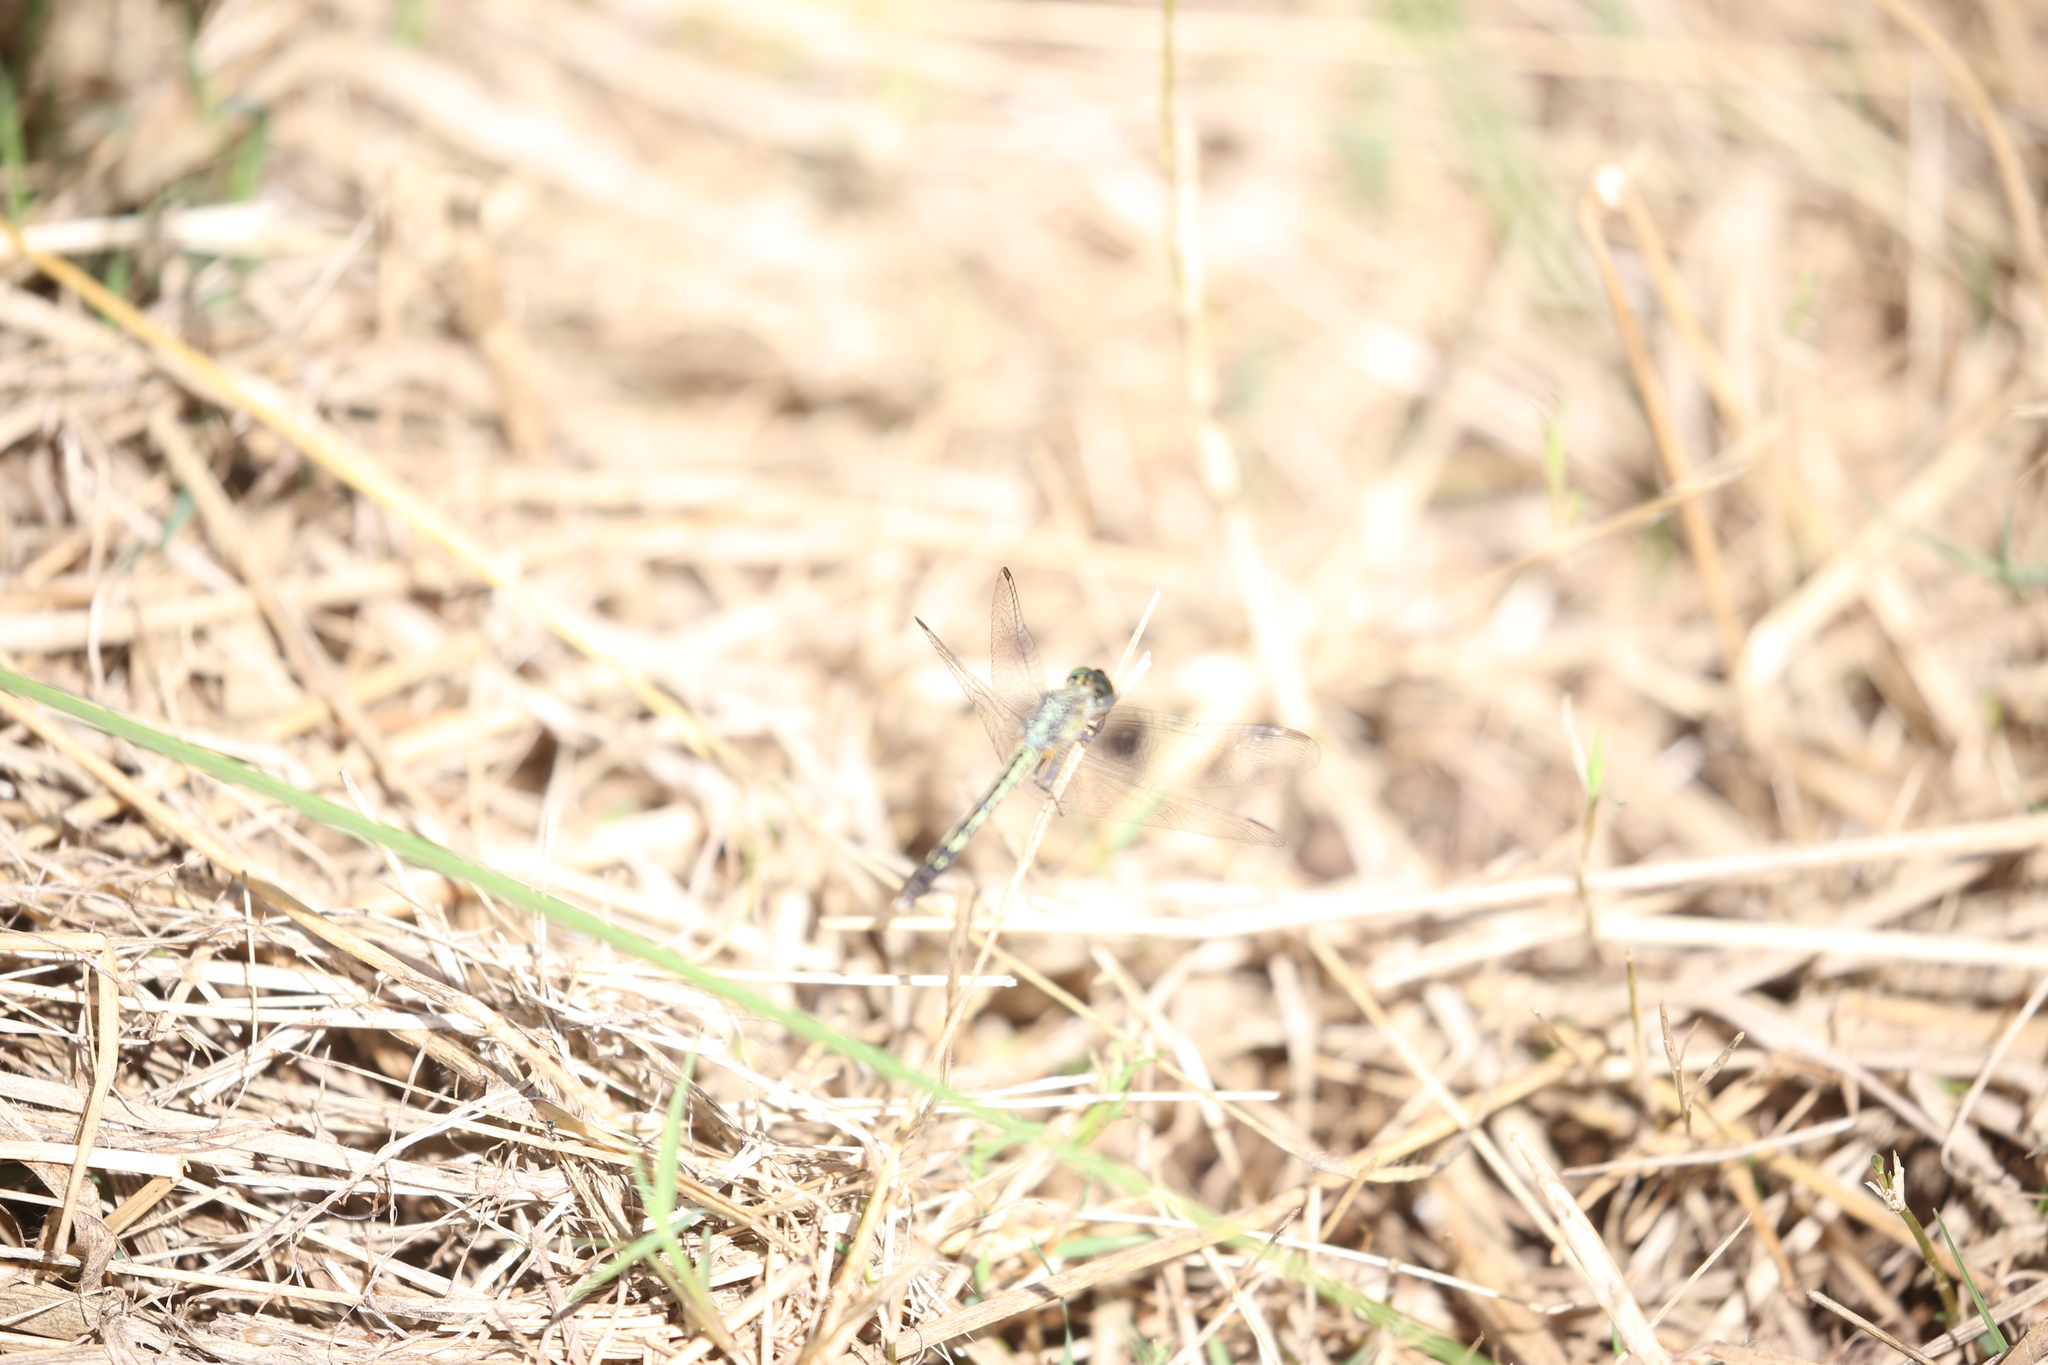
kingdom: Animalia
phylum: Arthropoda
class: Insecta
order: Odonata
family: Libellulidae
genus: Diplacodes
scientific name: Diplacodes trivialis
